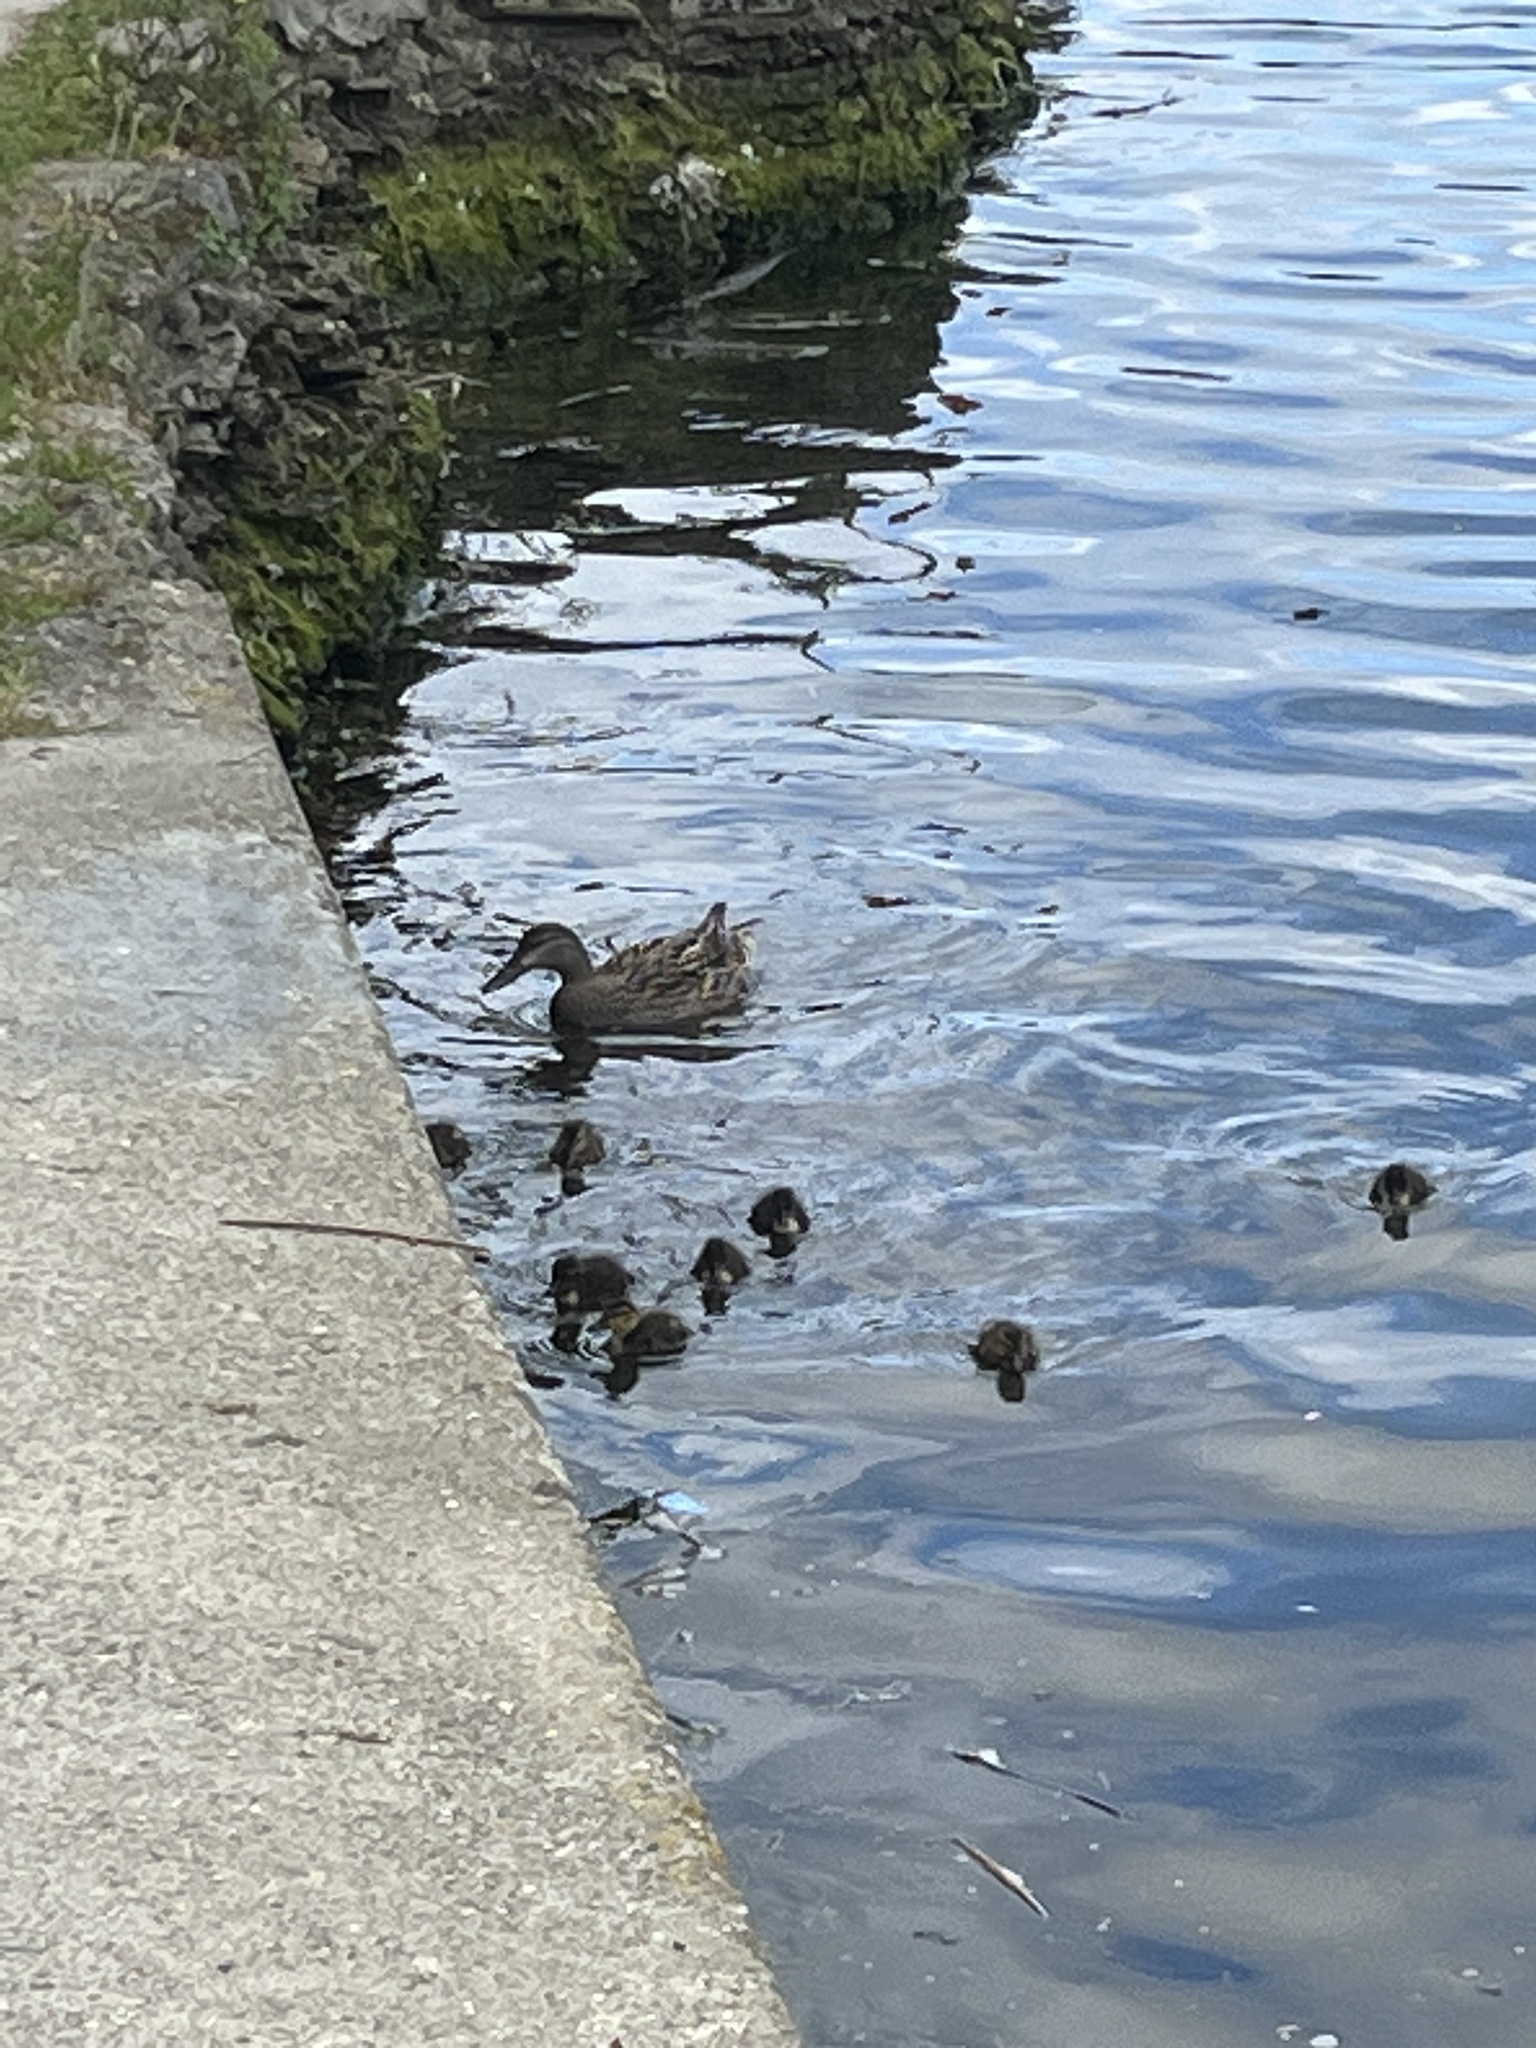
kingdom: Animalia
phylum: Chordata
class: Aves
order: Anseriformes
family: Anatidae
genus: Anas
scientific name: Anas platyrhynchos
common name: Mallard
